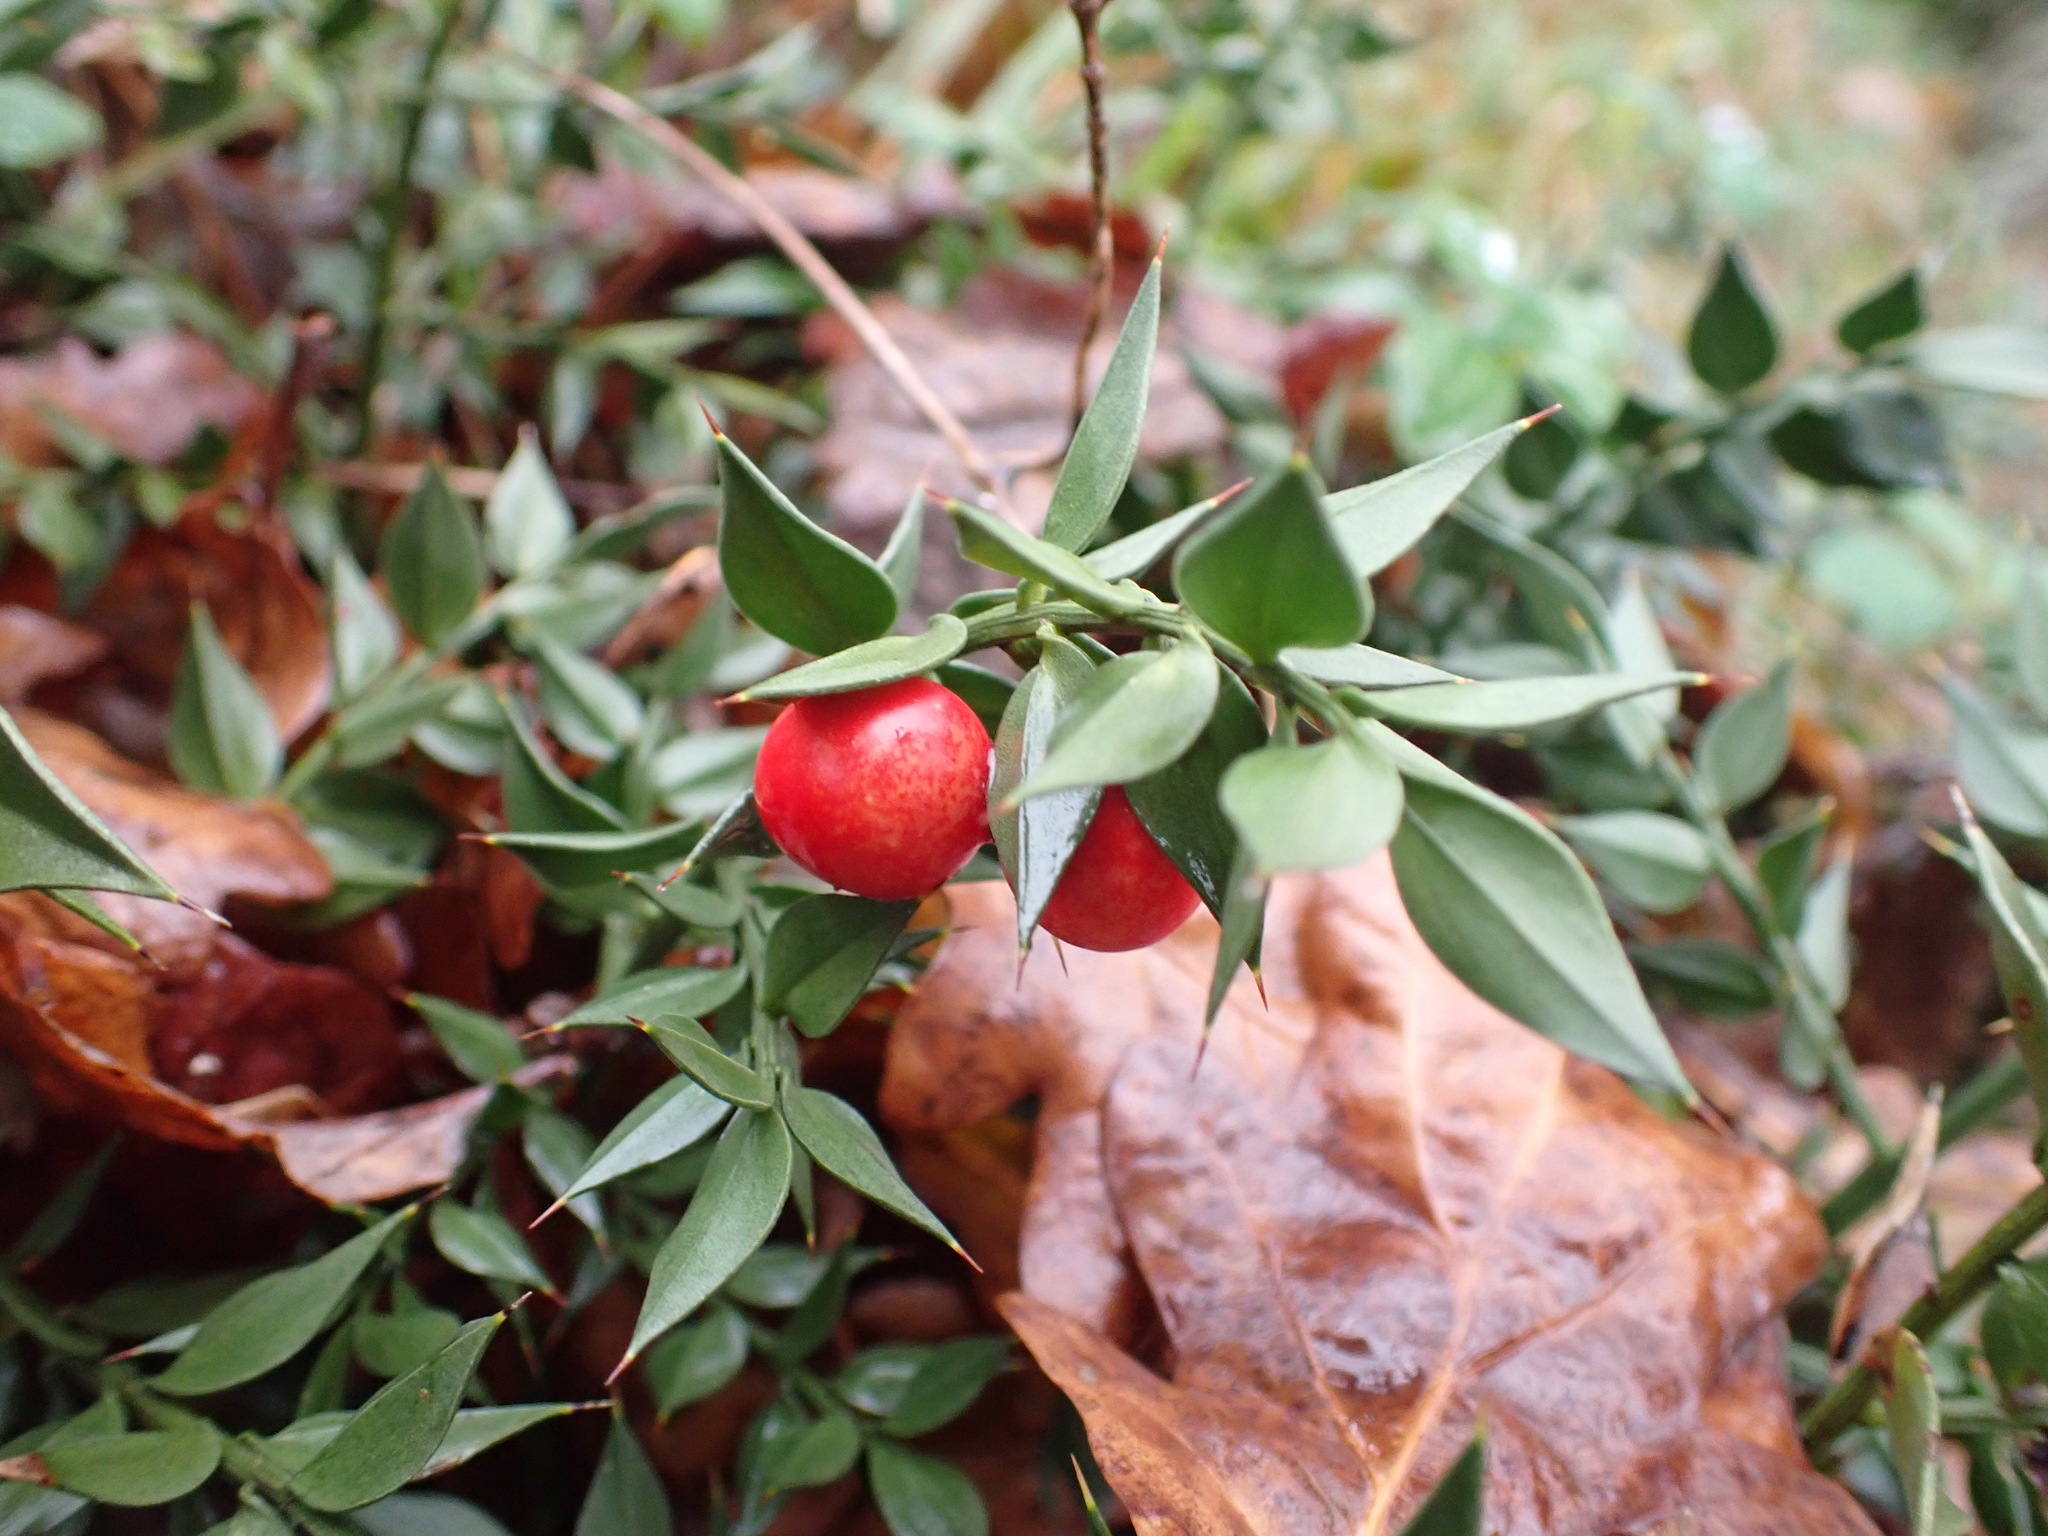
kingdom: Plantae
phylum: Tracheophyta
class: Liliopsida
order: Asparagales
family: Asparagaceae
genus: Ruscus
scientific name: Ruscus aculeatus
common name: Butcher's-broom
